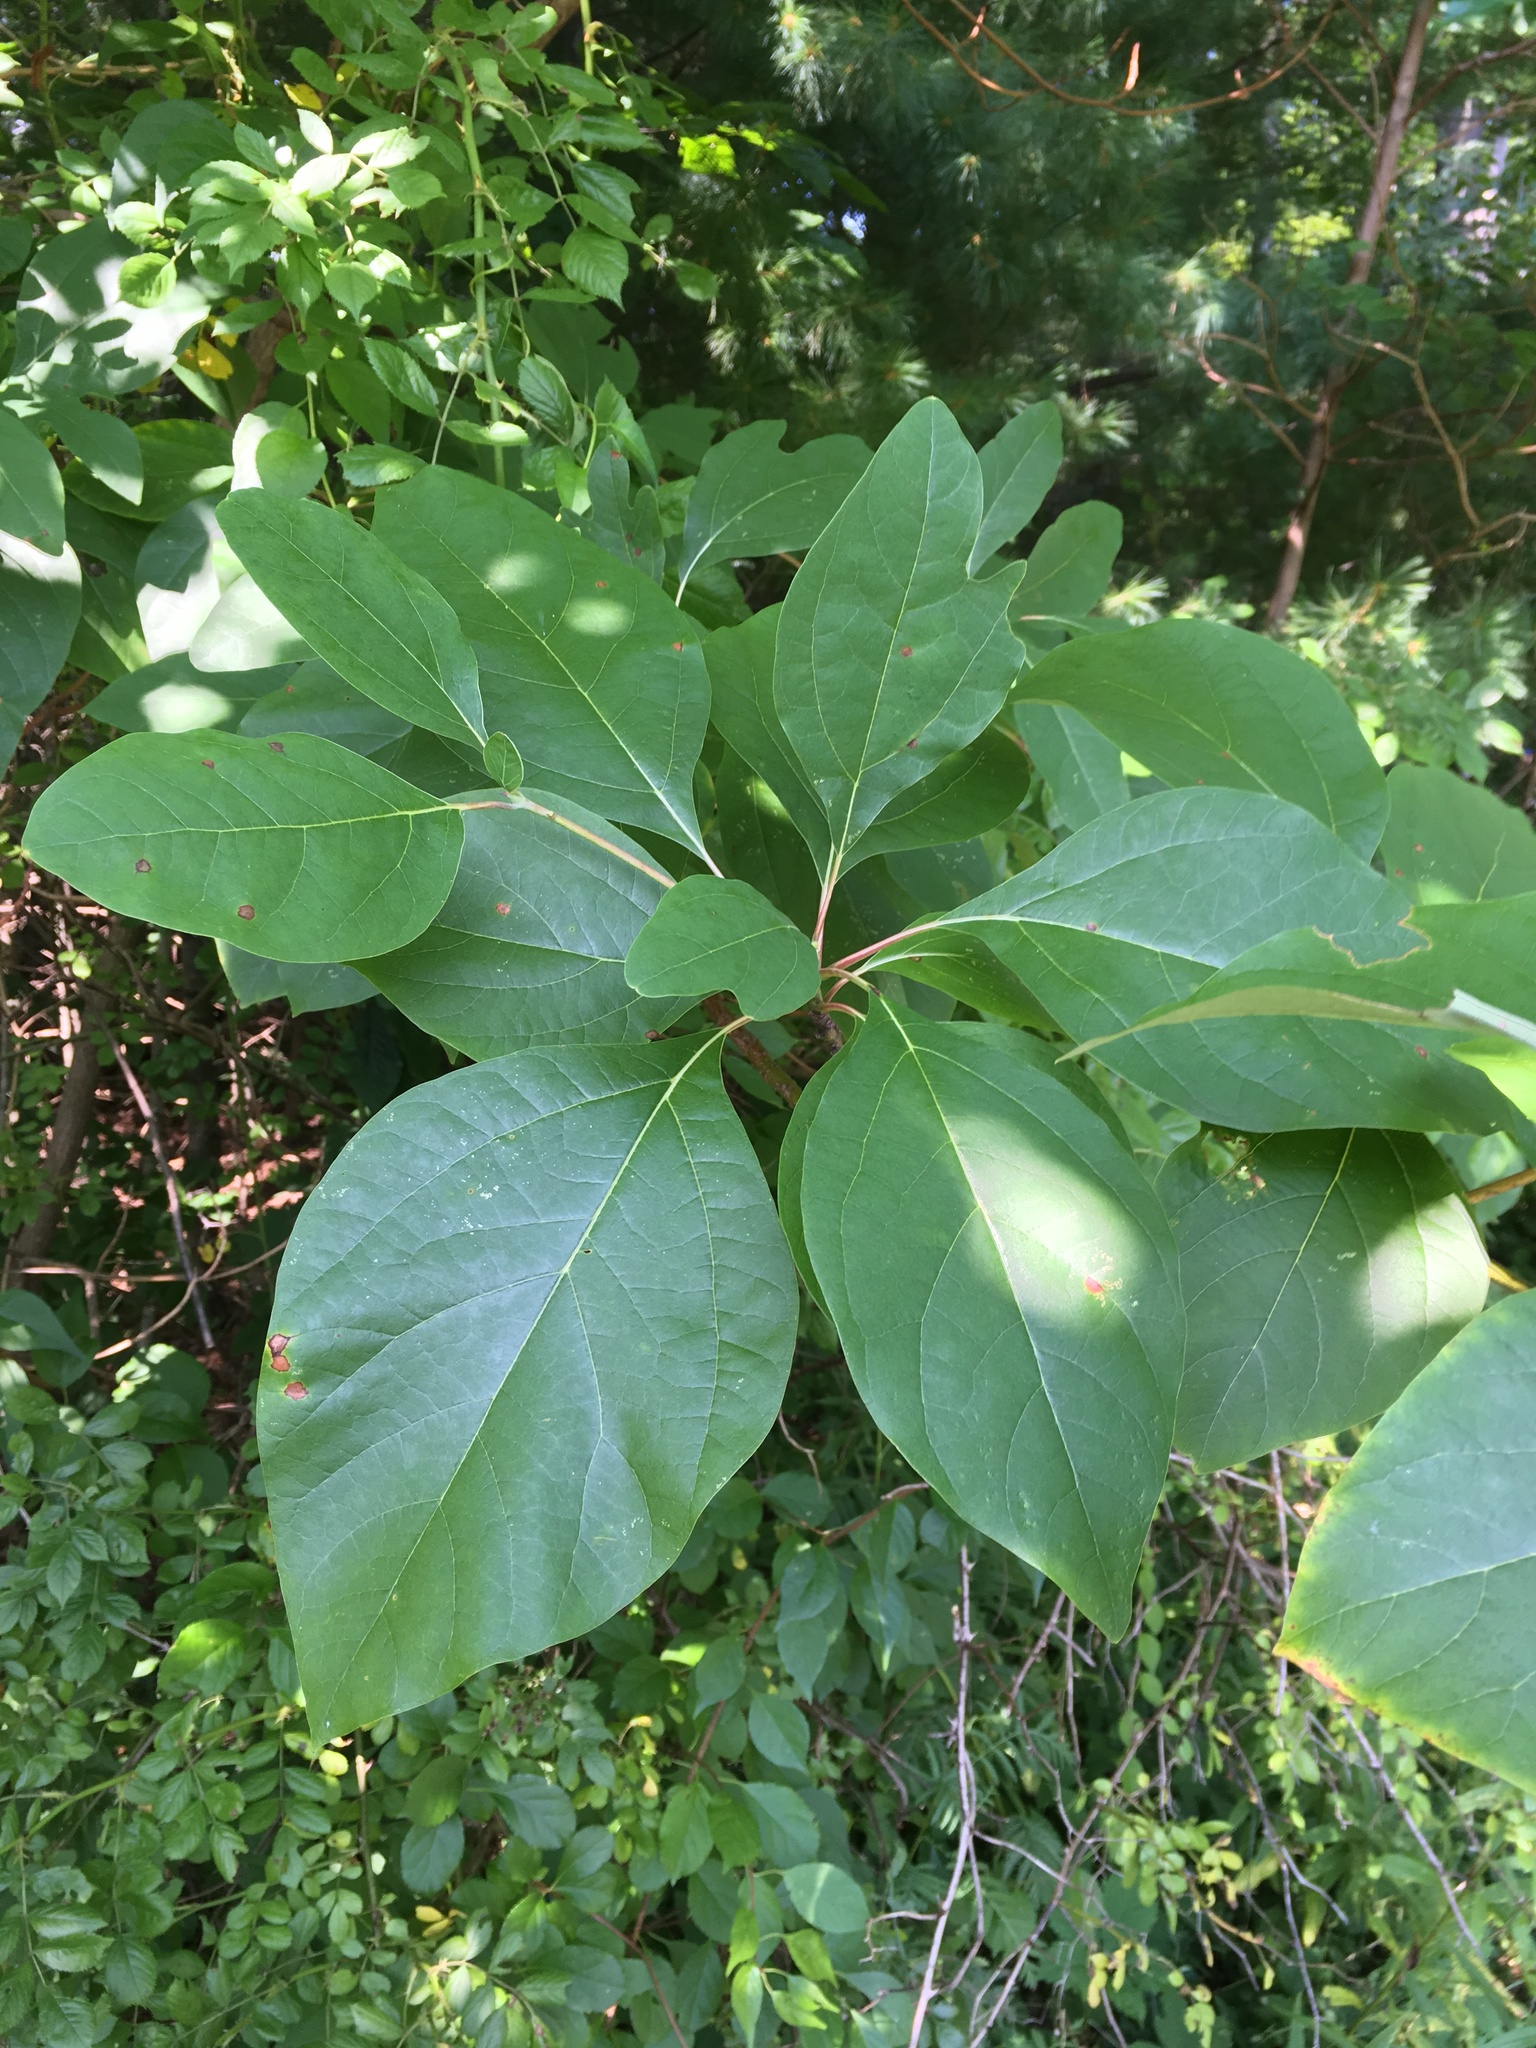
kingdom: Plantae
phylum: Tracheophyta
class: Magnoliopsida
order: Laurales
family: Lauraceae
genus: Sassafras
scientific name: Sassafras albidum
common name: Sassafras
